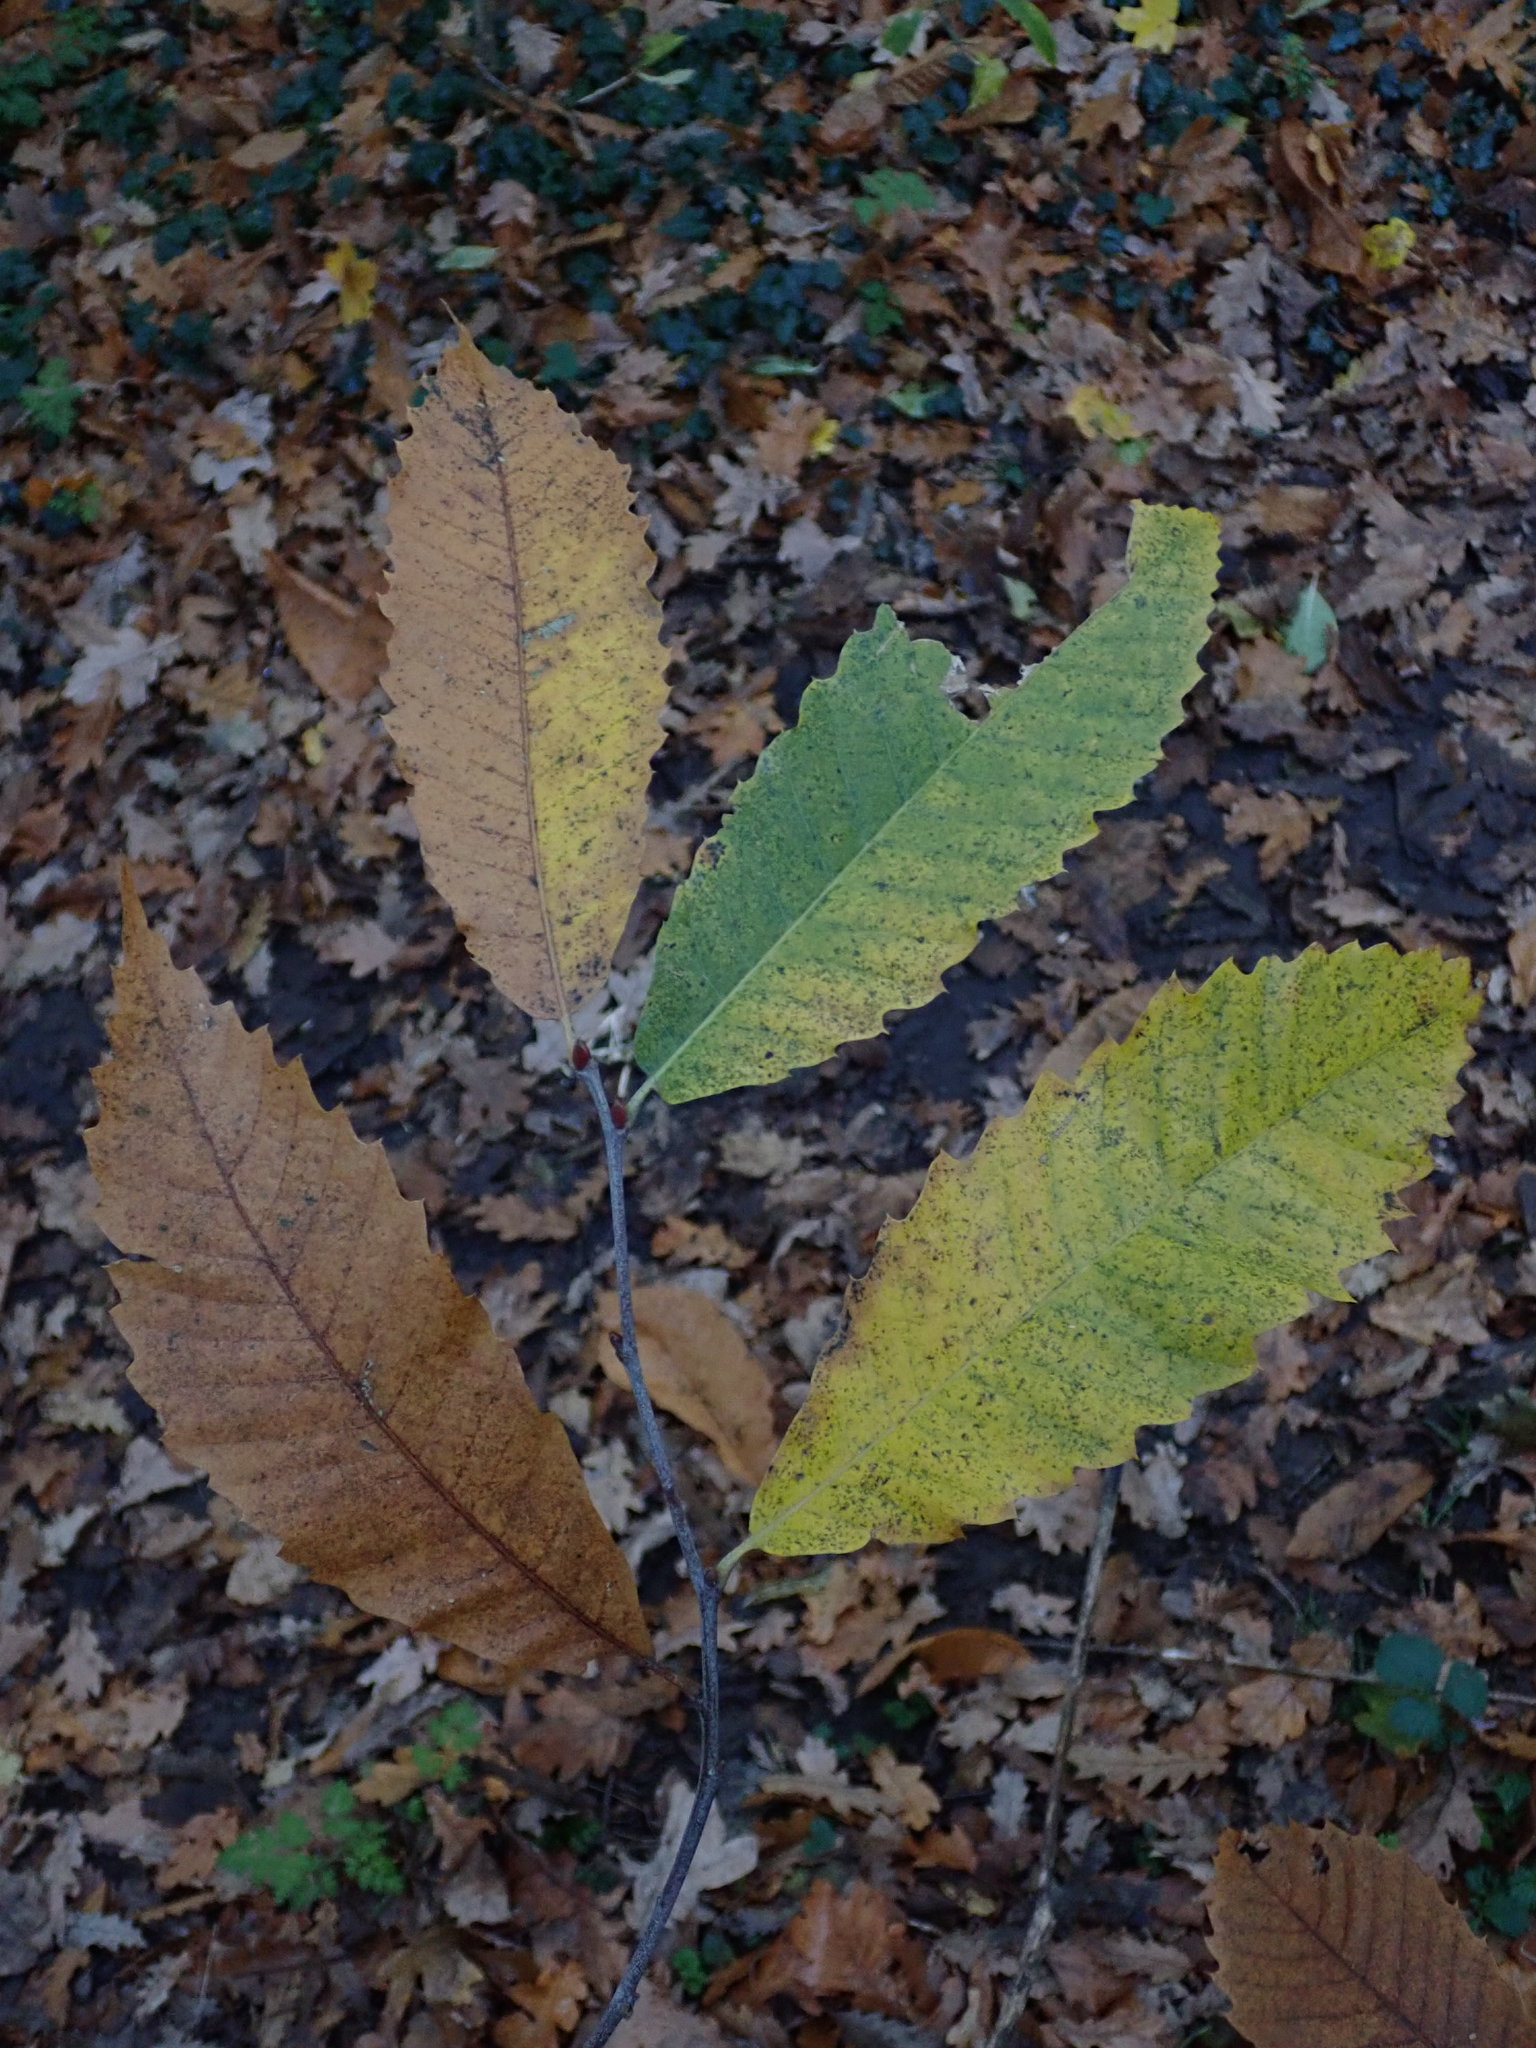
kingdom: Plantae
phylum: Tracheophyta
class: Magnoliopsida
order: Fagales
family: Fagaceae
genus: Castanea
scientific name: Castanea sativa
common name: Sweet chestnut
